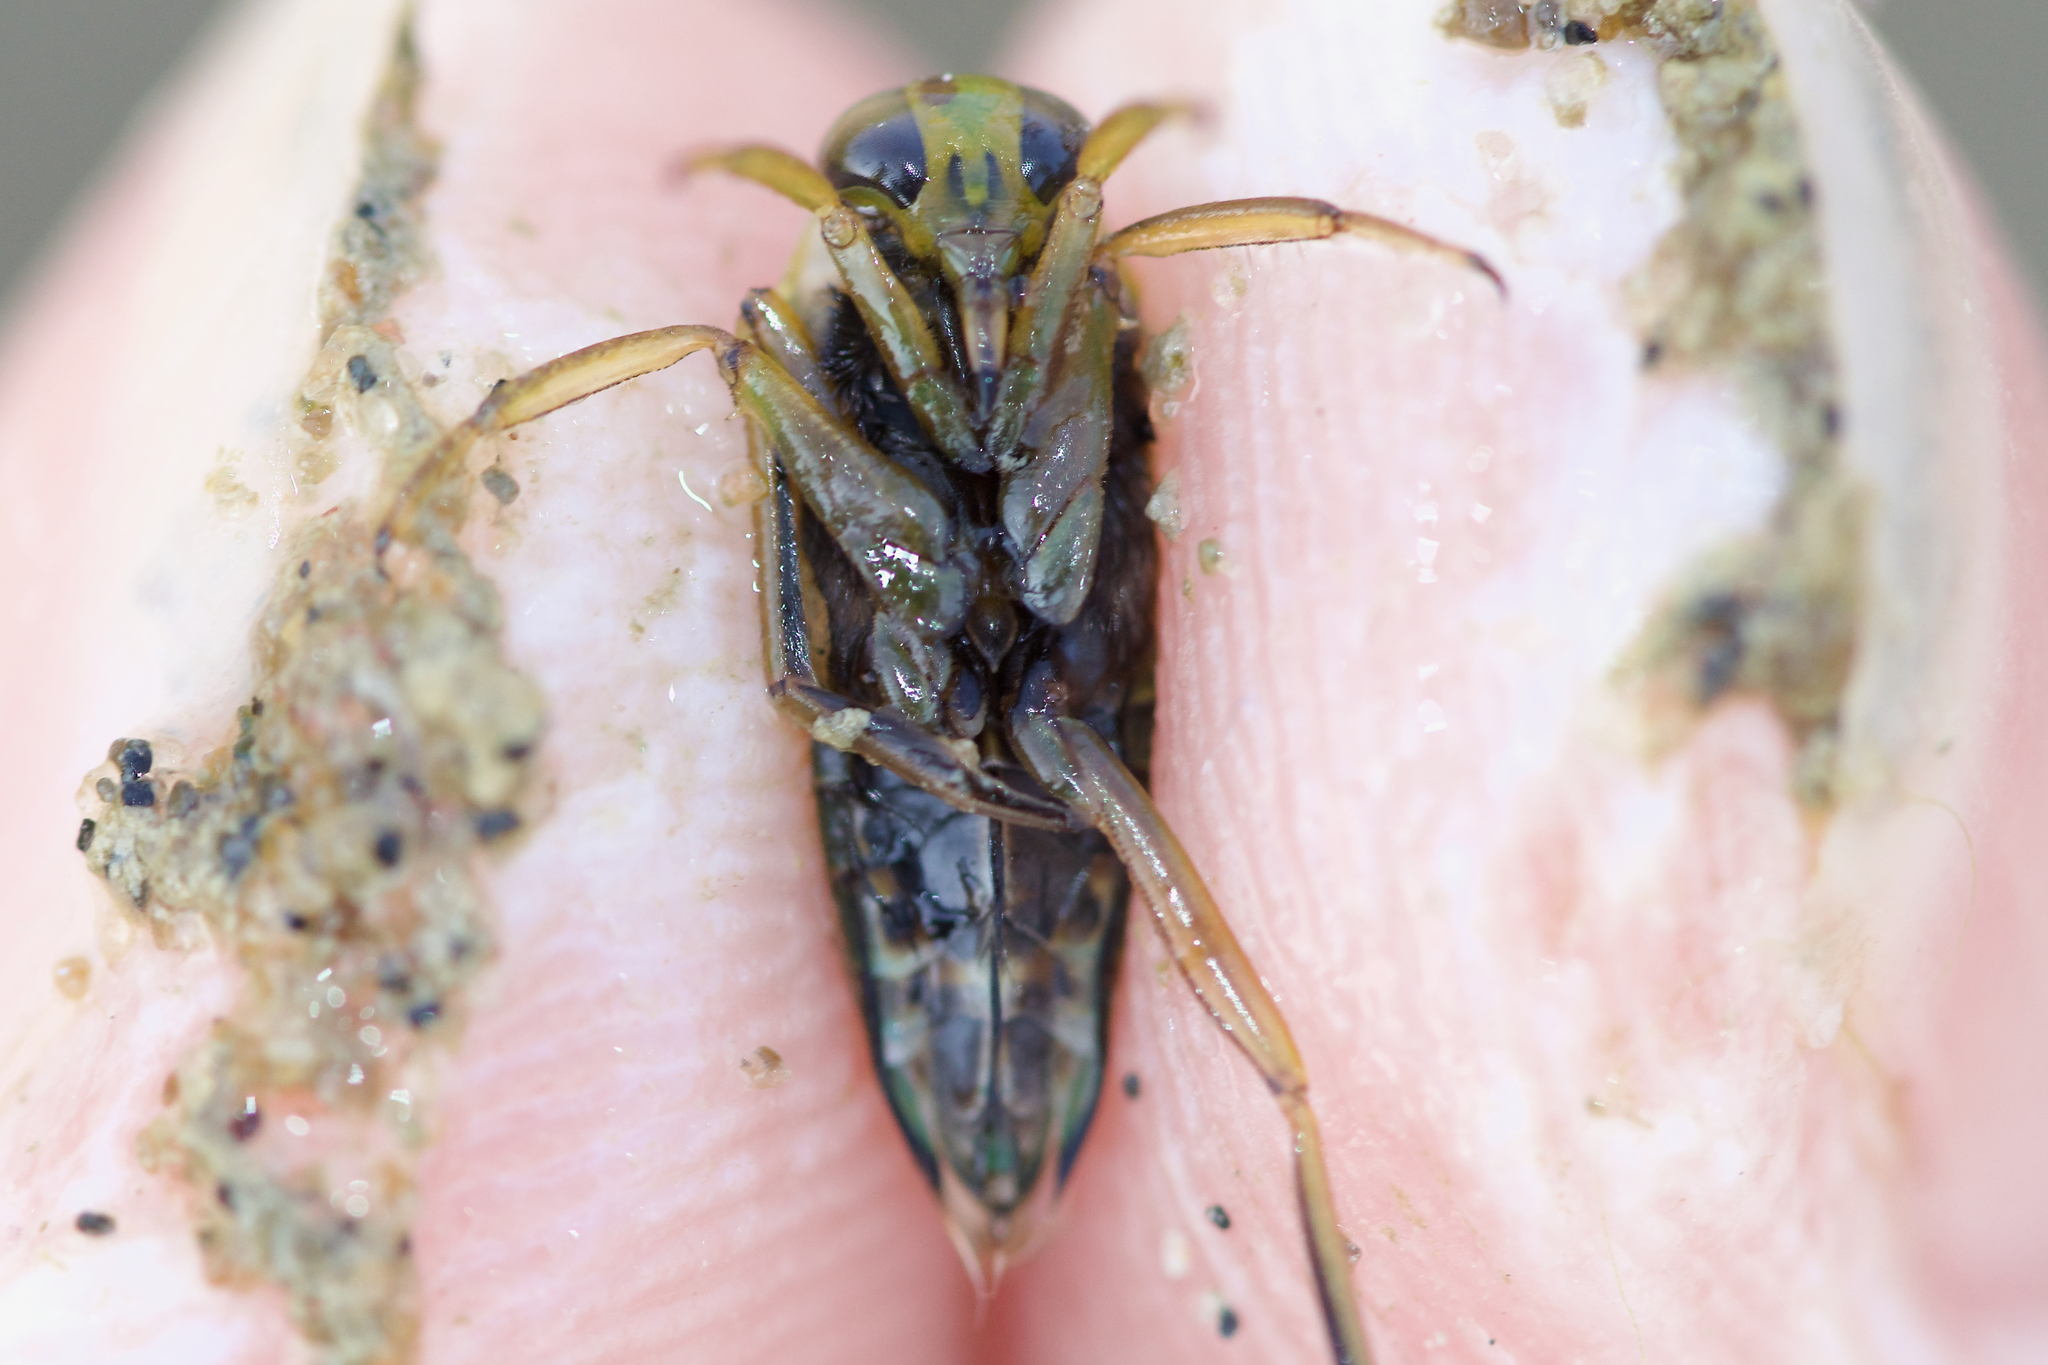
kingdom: Animalia
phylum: Arthropoda
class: Insecta
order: Hemiptera
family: Notonectidae
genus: Notonecta
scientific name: Notonecta undulata
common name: Grousewinged backswimmer
